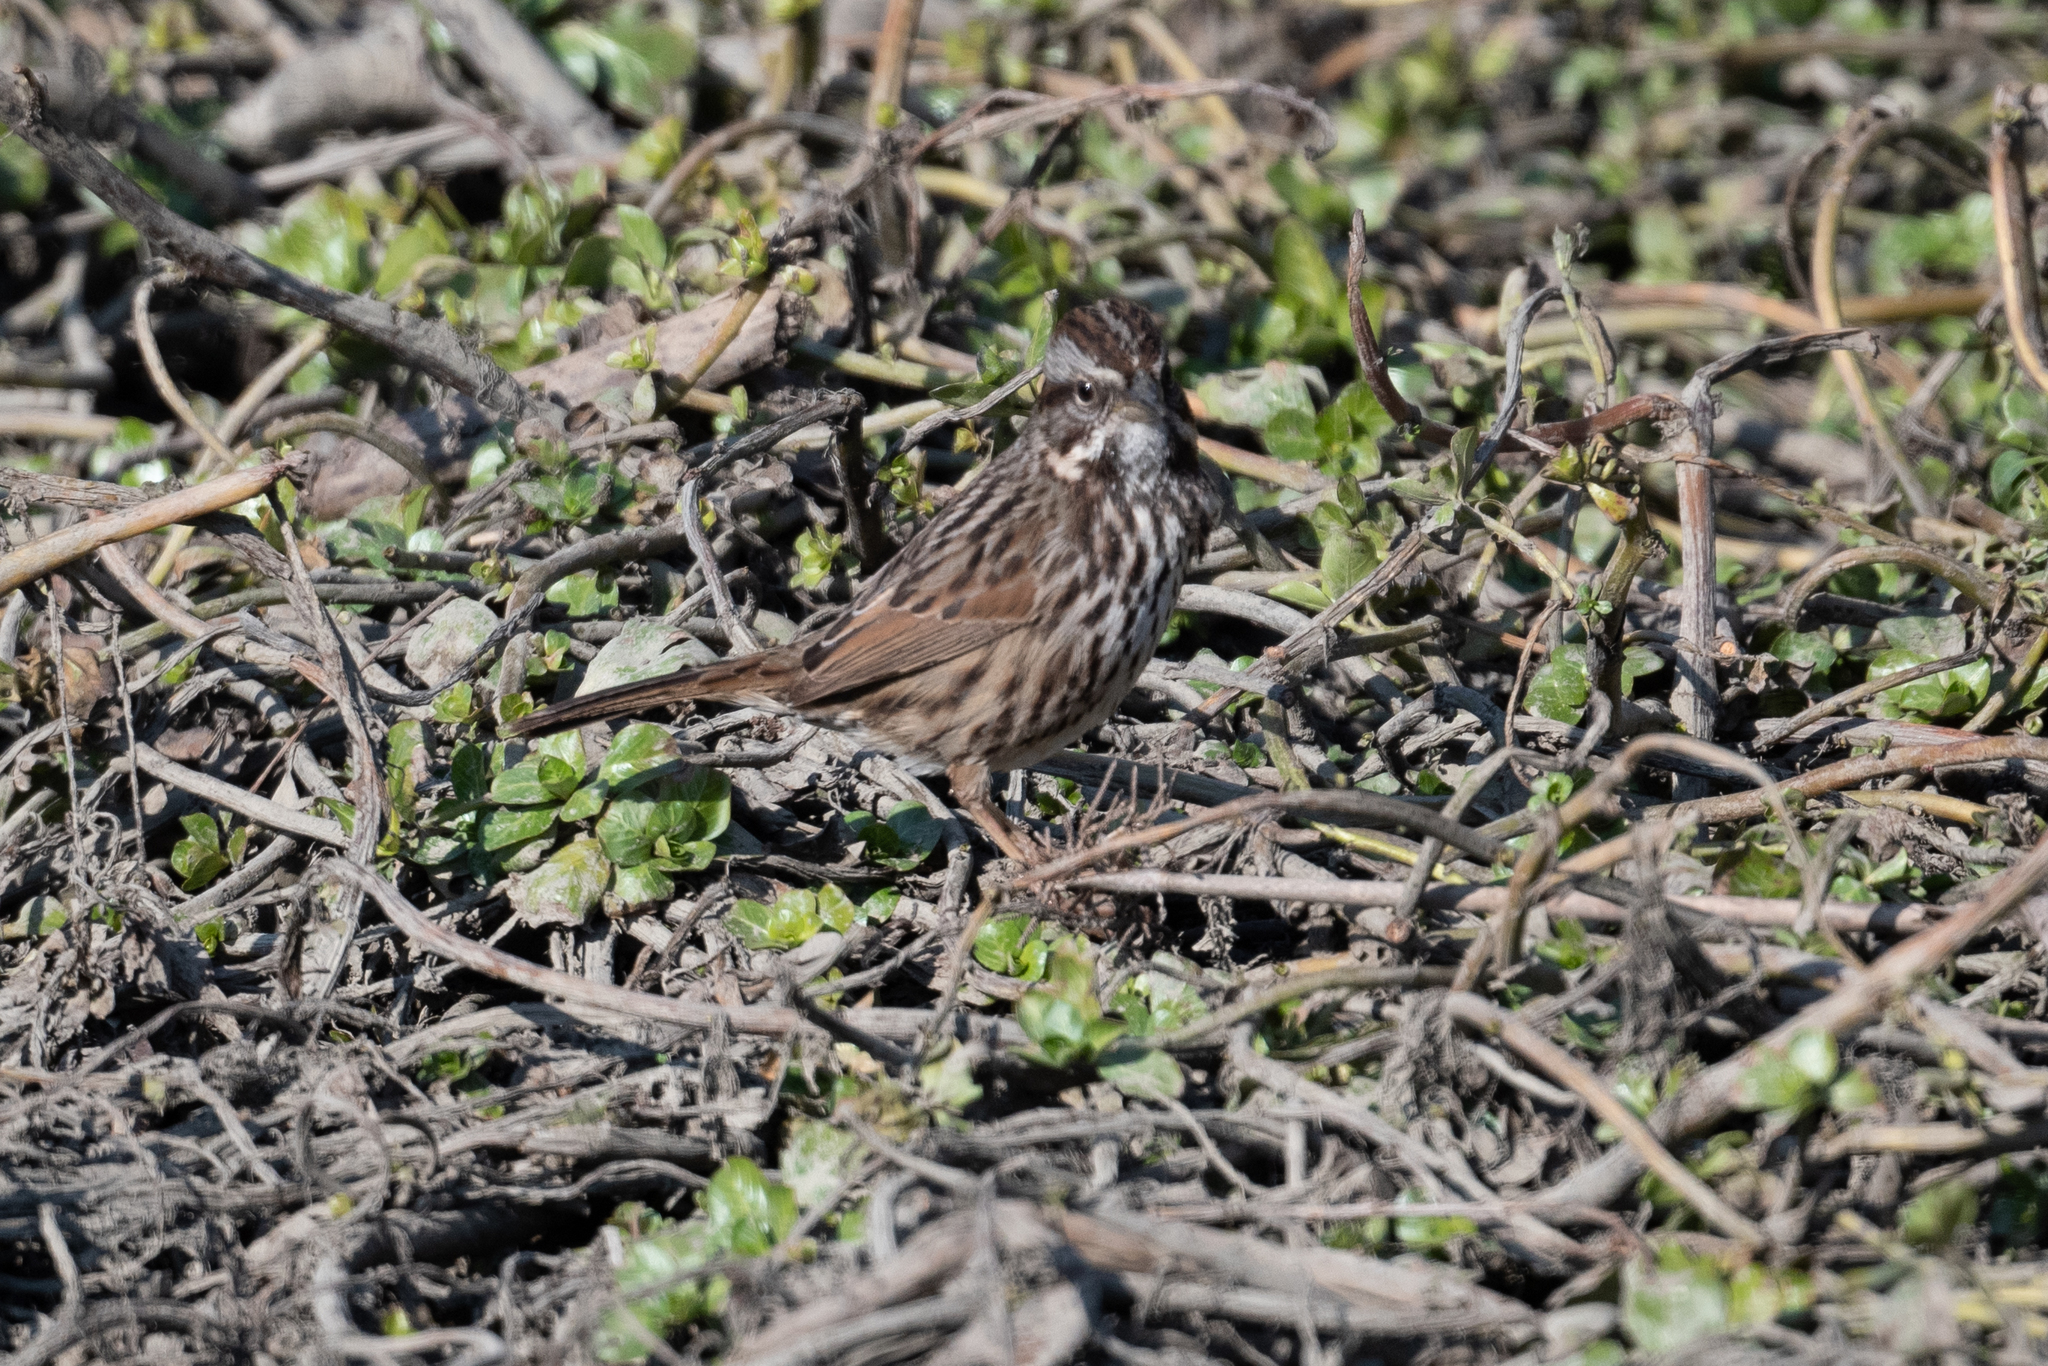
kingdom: Animalia
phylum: Chordata
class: Aves
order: Passeriformes
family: Passerellidae
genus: Melospiza
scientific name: Melospiza melodia
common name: Song sparrow
